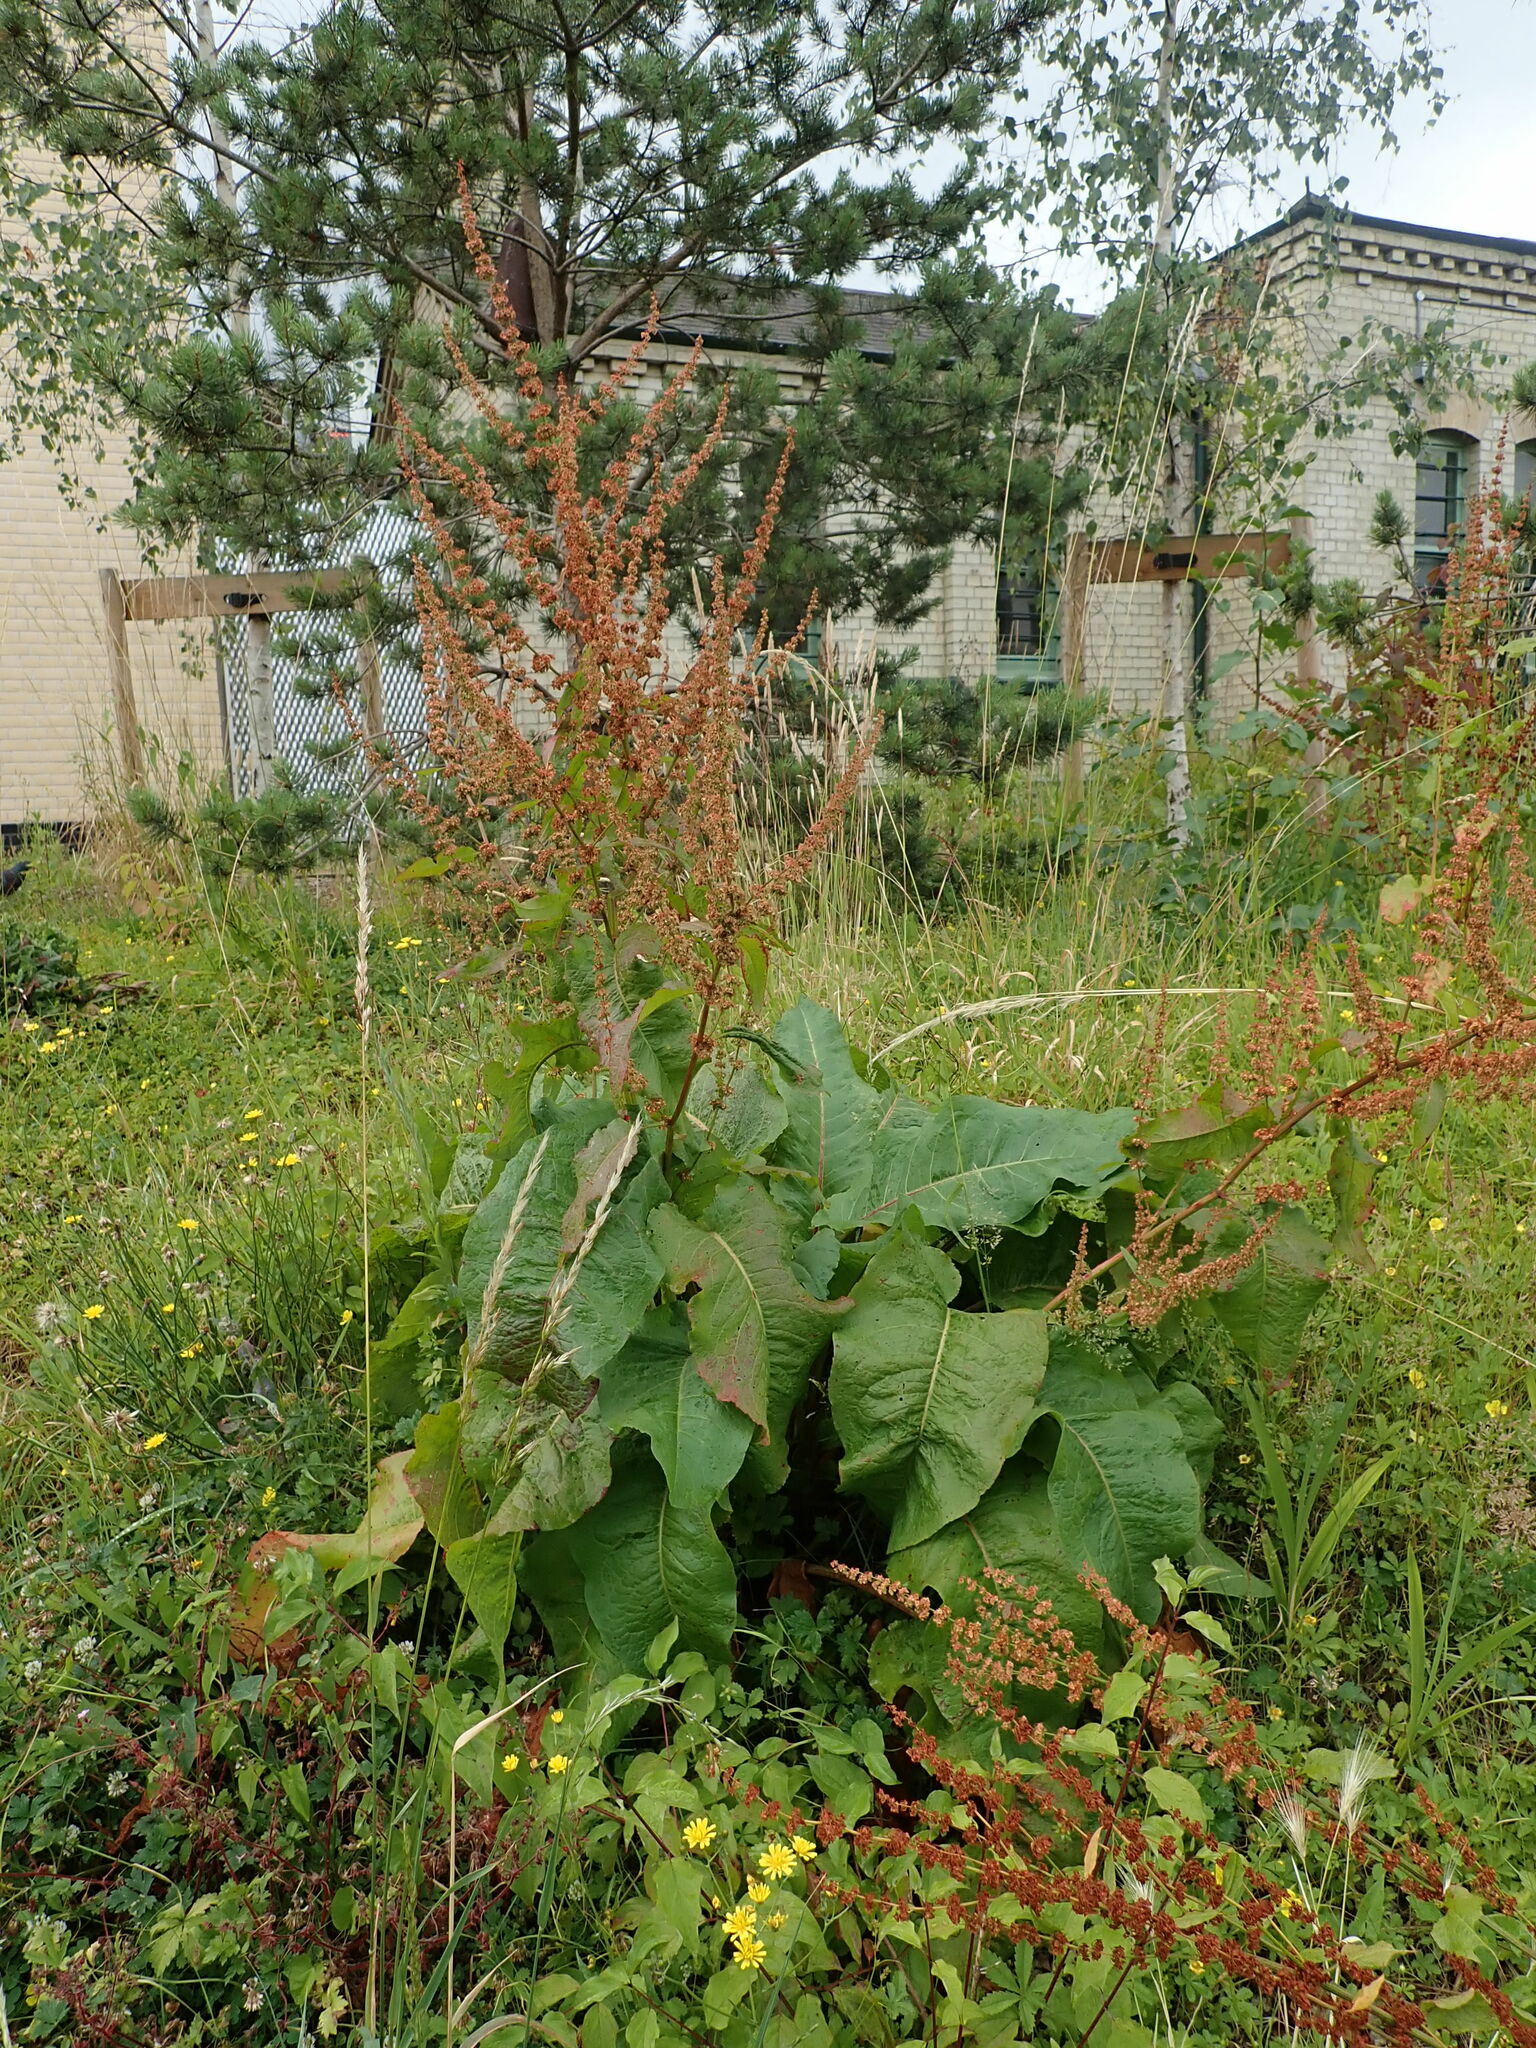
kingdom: Plantae
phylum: Tracheophyta
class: Magnoliopsida
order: Caryophyllales
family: Polygonaceae
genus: Rumex
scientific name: Rumex obtusifolius
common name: Bitter dock
